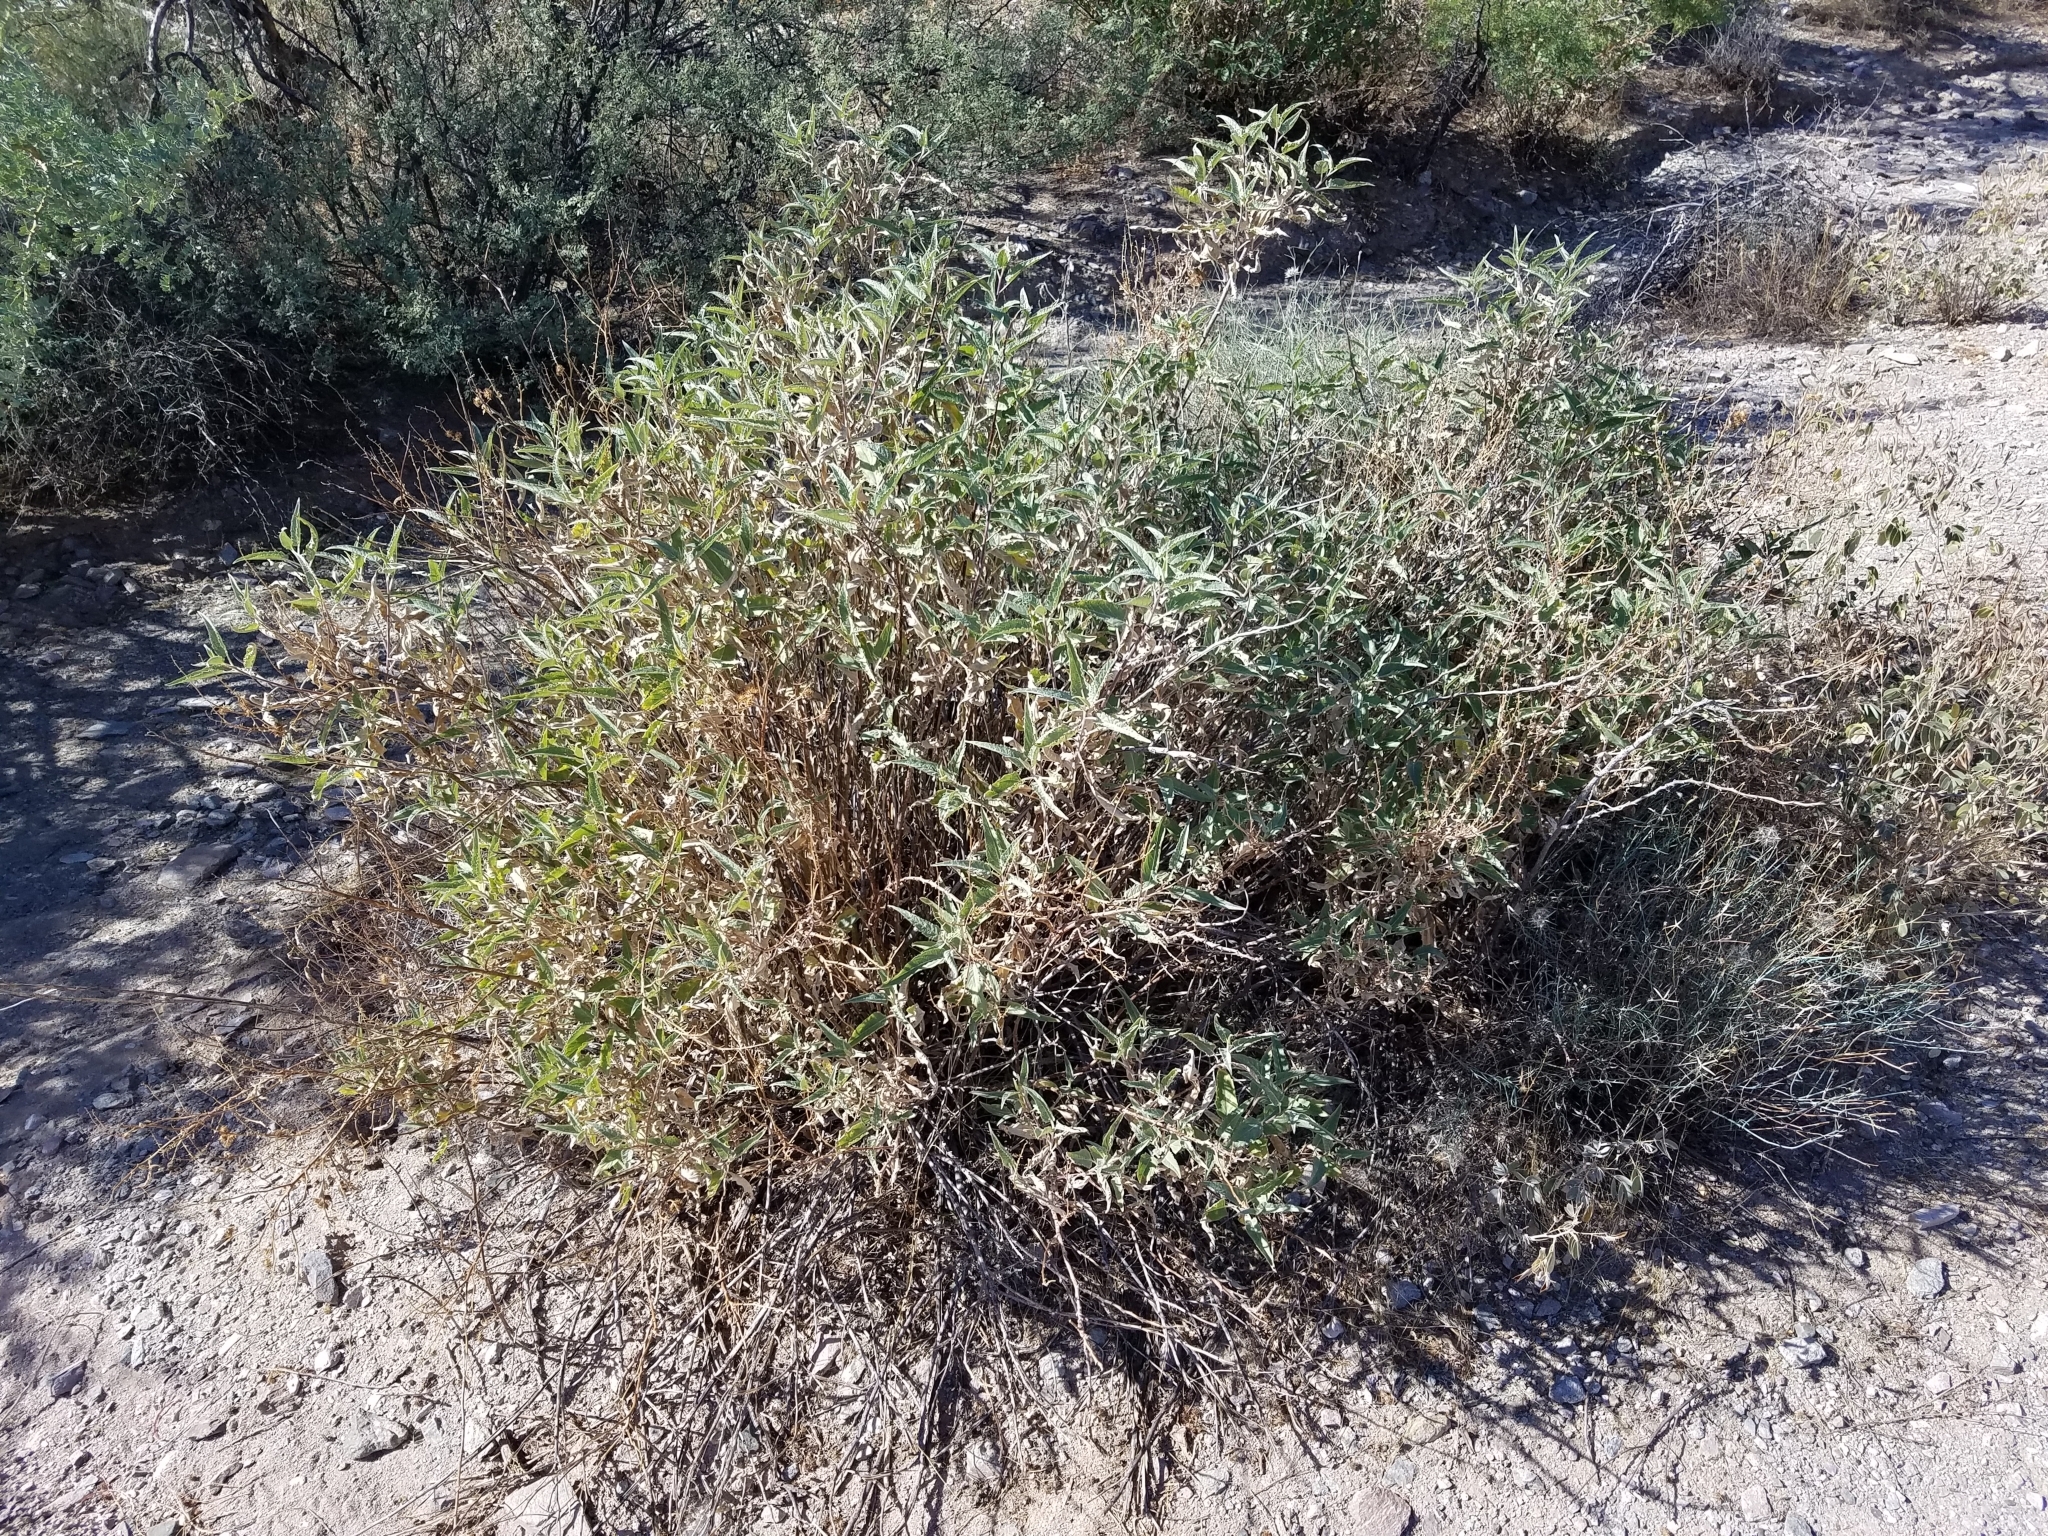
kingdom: Plantae
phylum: Tracheophyta
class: Magnoliopsida
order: Asterales
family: Asteraceae
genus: Ambrosia
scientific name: Ambrosia ambrosioides
